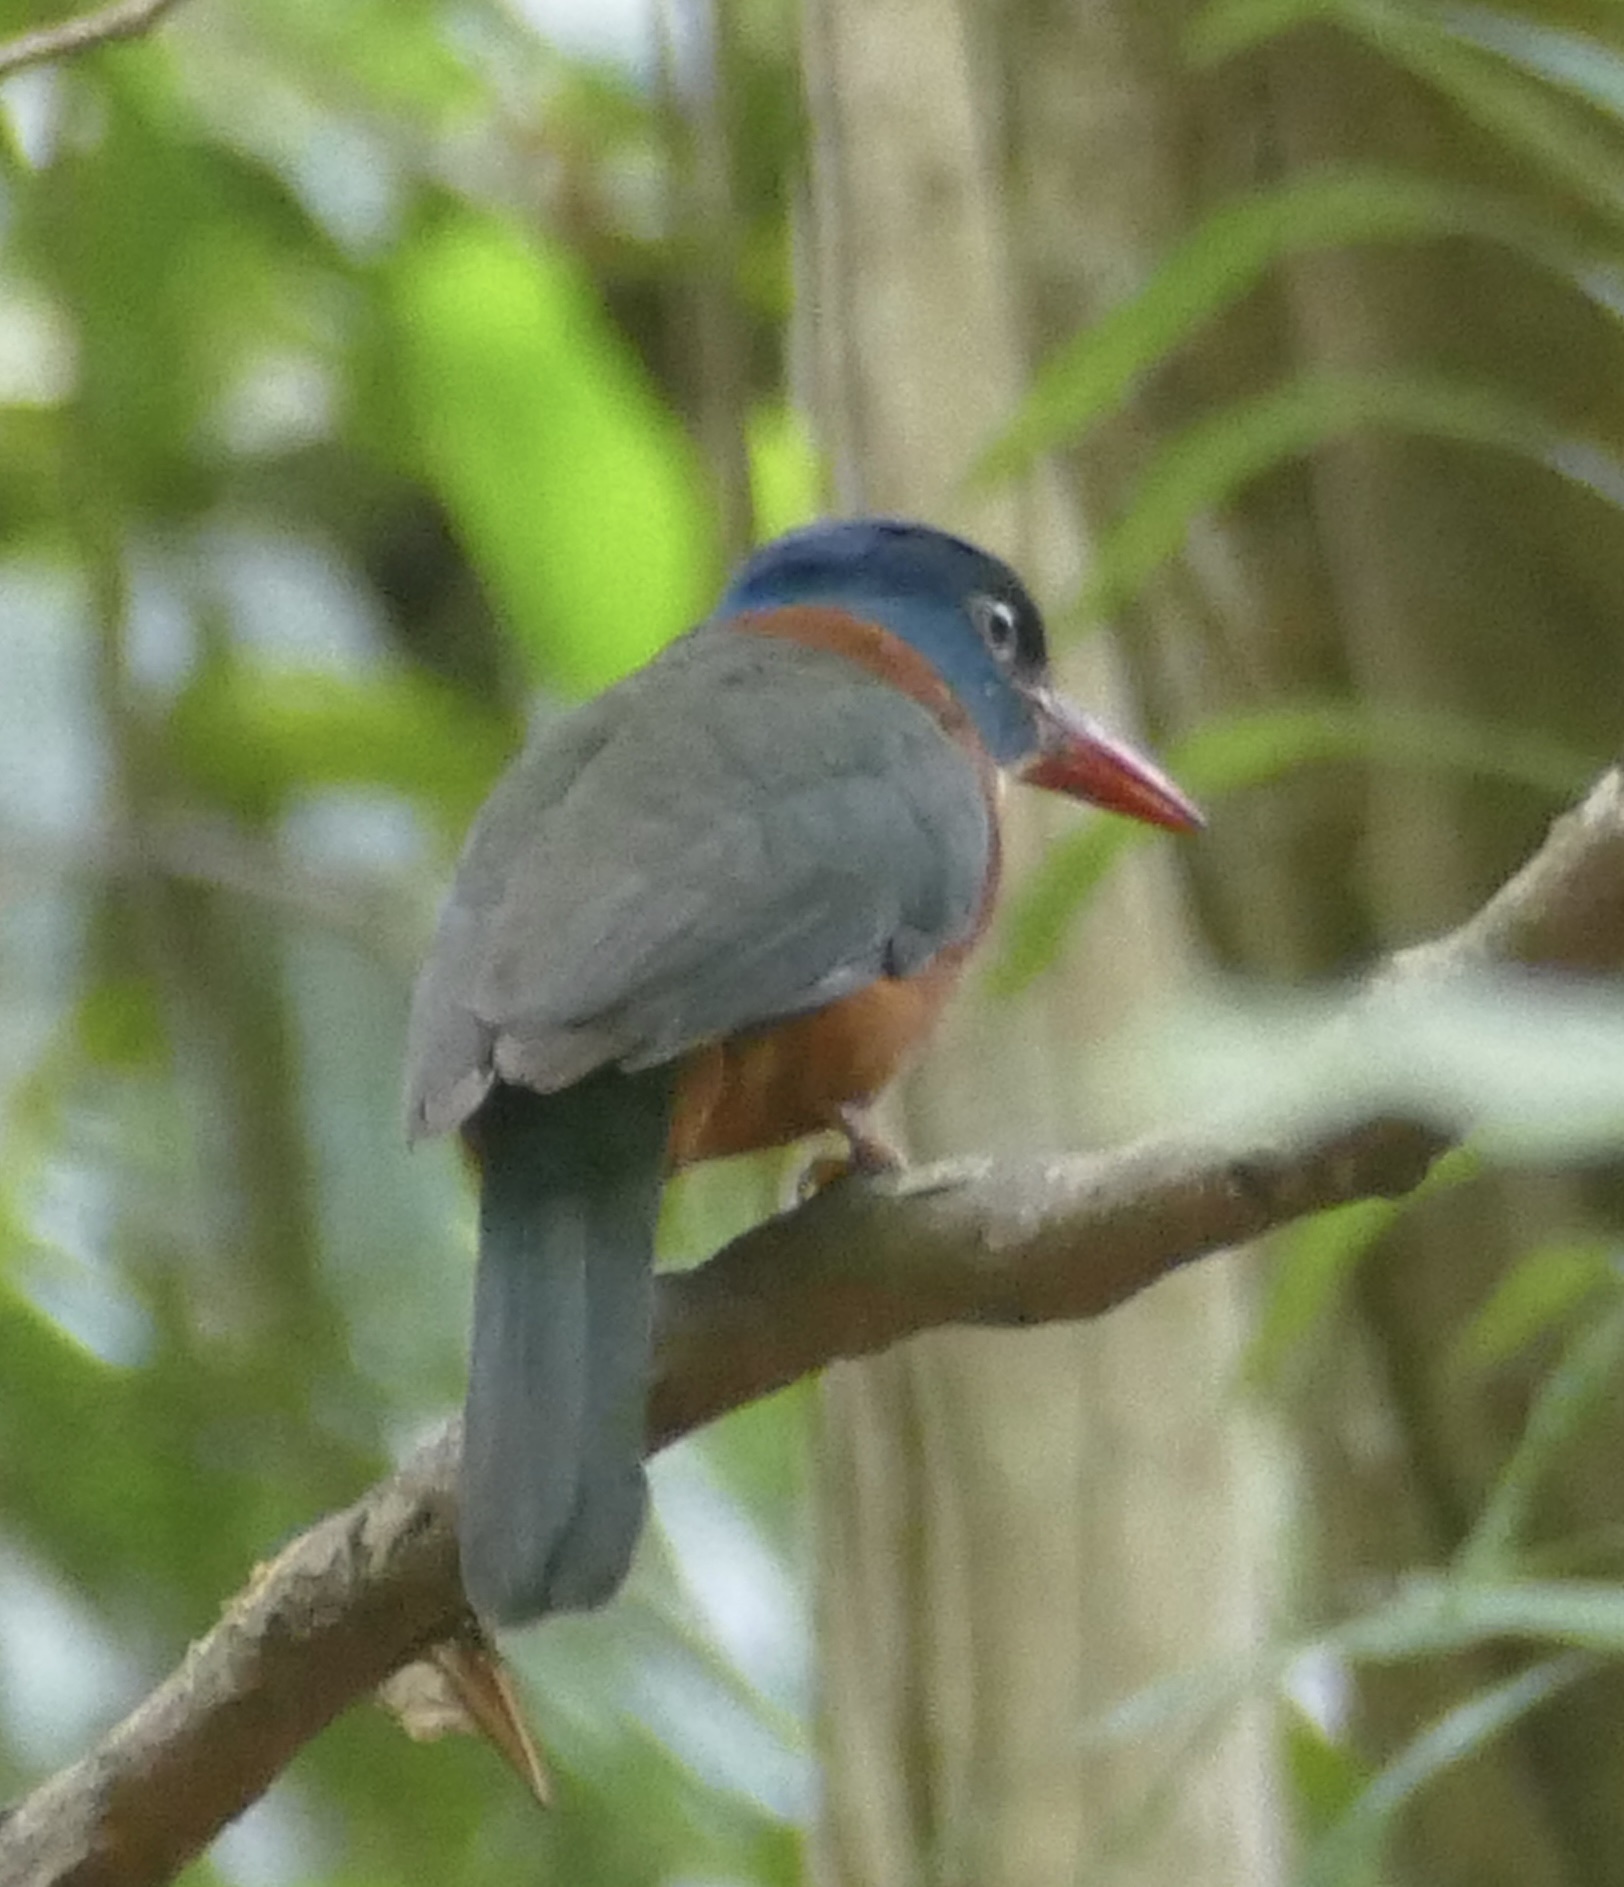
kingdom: Animalia
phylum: Chordata
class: Aves
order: Coraciiformes
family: Alcedinidae
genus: Actenoides
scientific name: Actenoides monachus
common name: Green-backed kingfisher
